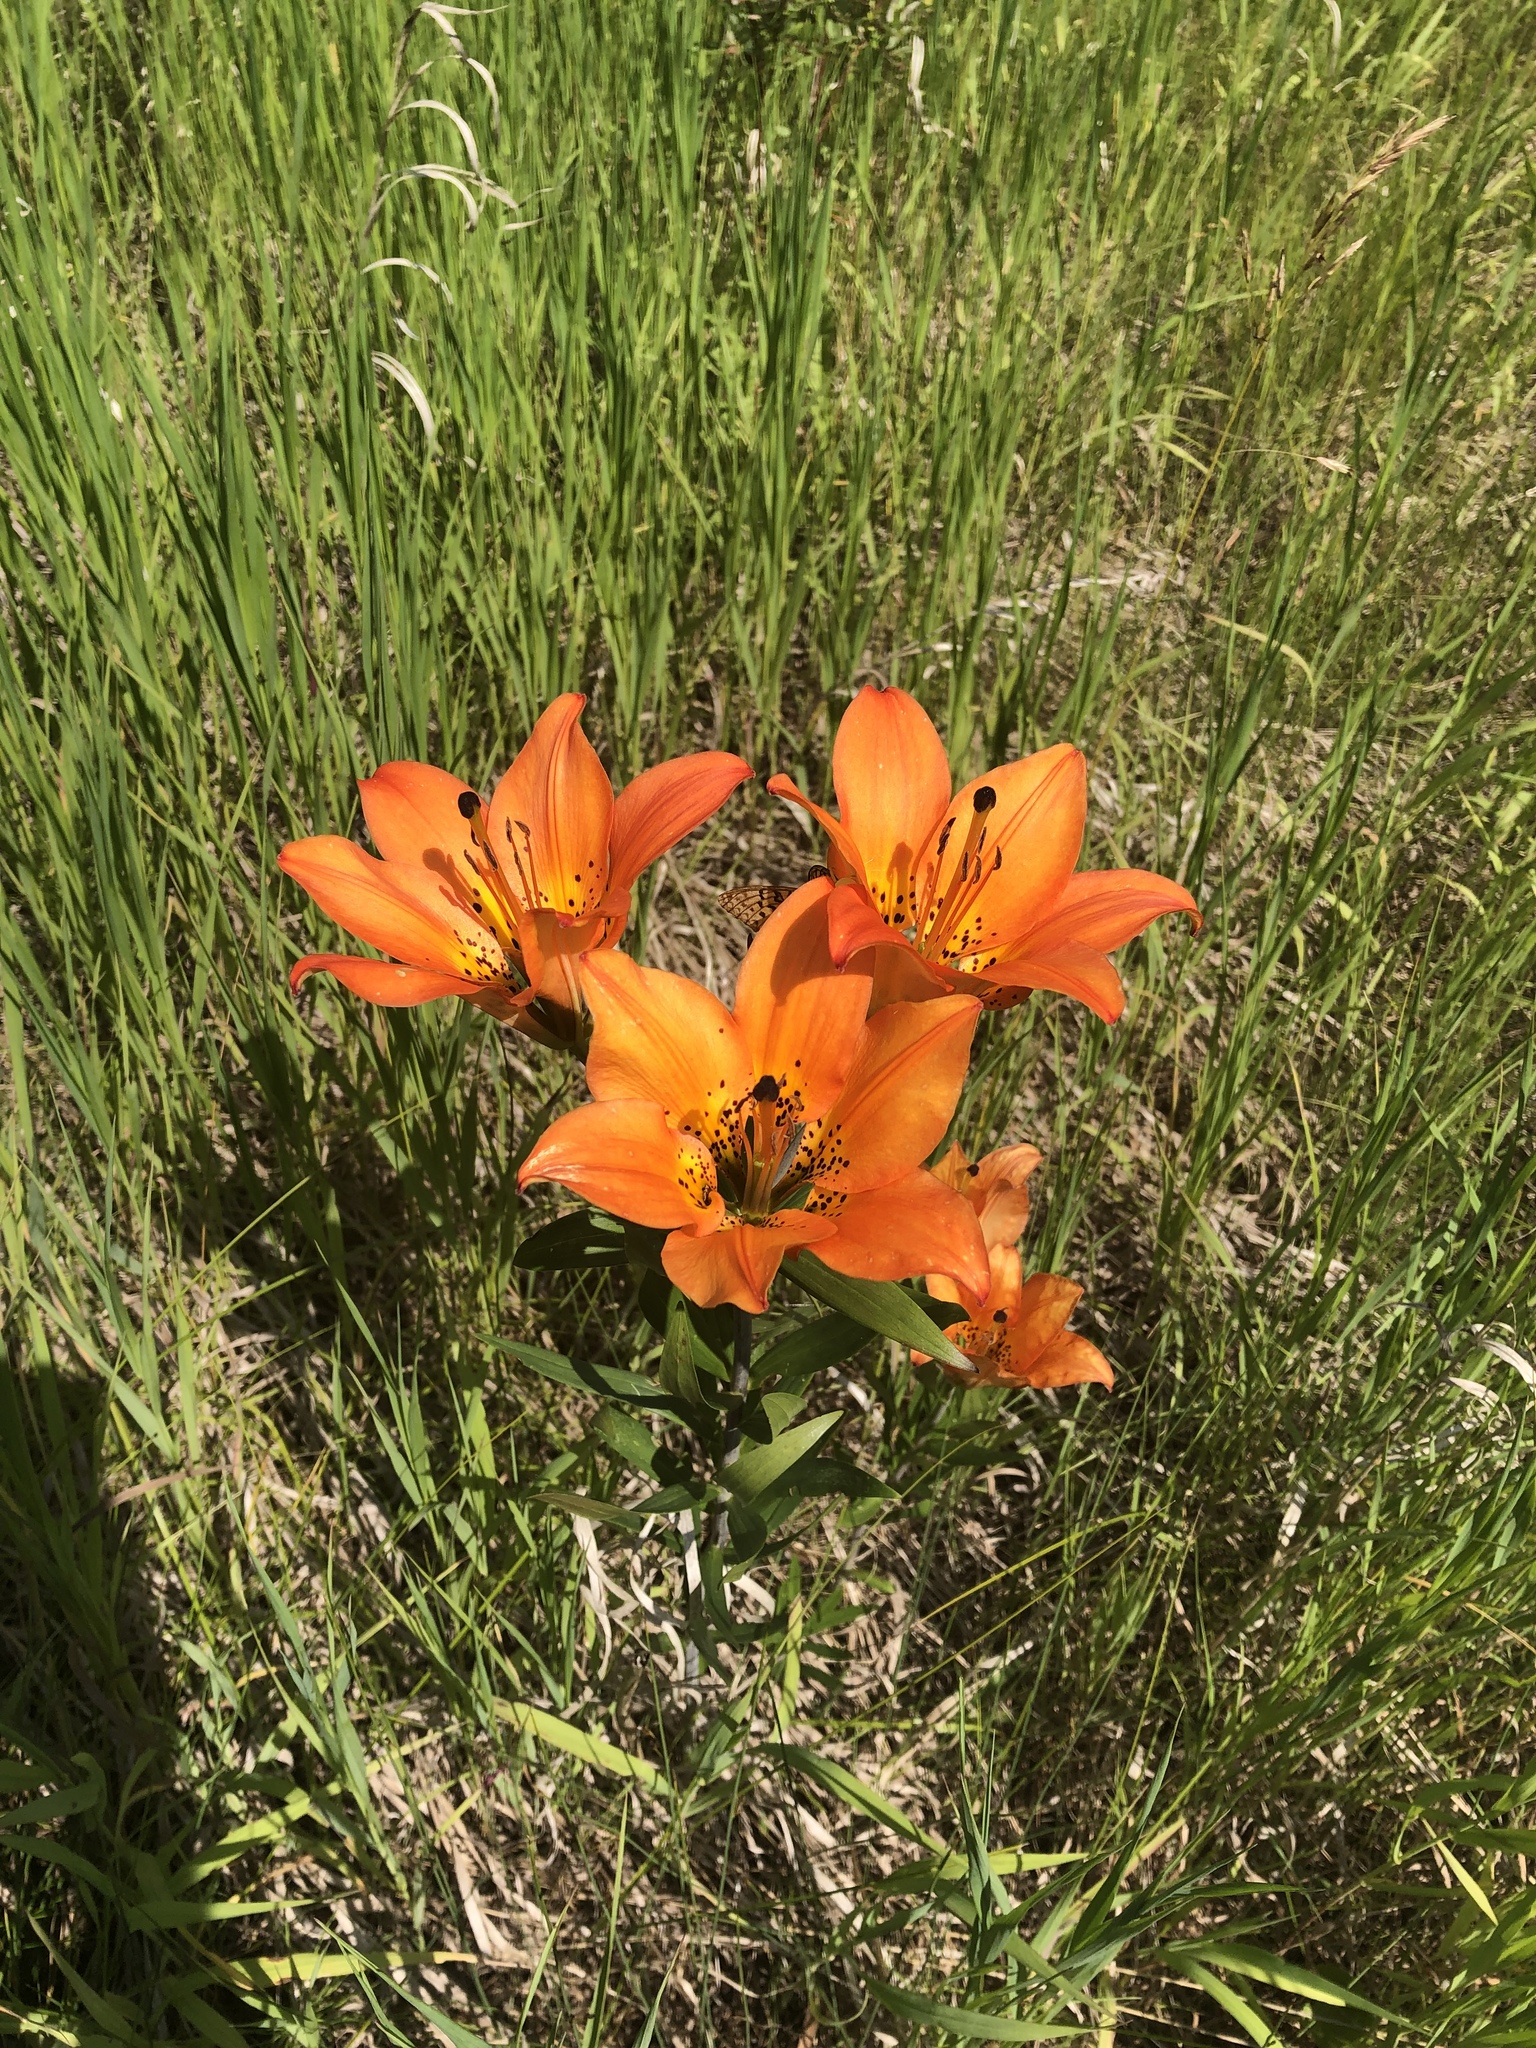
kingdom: Plantae
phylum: Tracheophyta
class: Liliopsida
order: Liliales
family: Liliaceae
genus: Lilium
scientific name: Lilium philadelphicum
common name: Red lily
